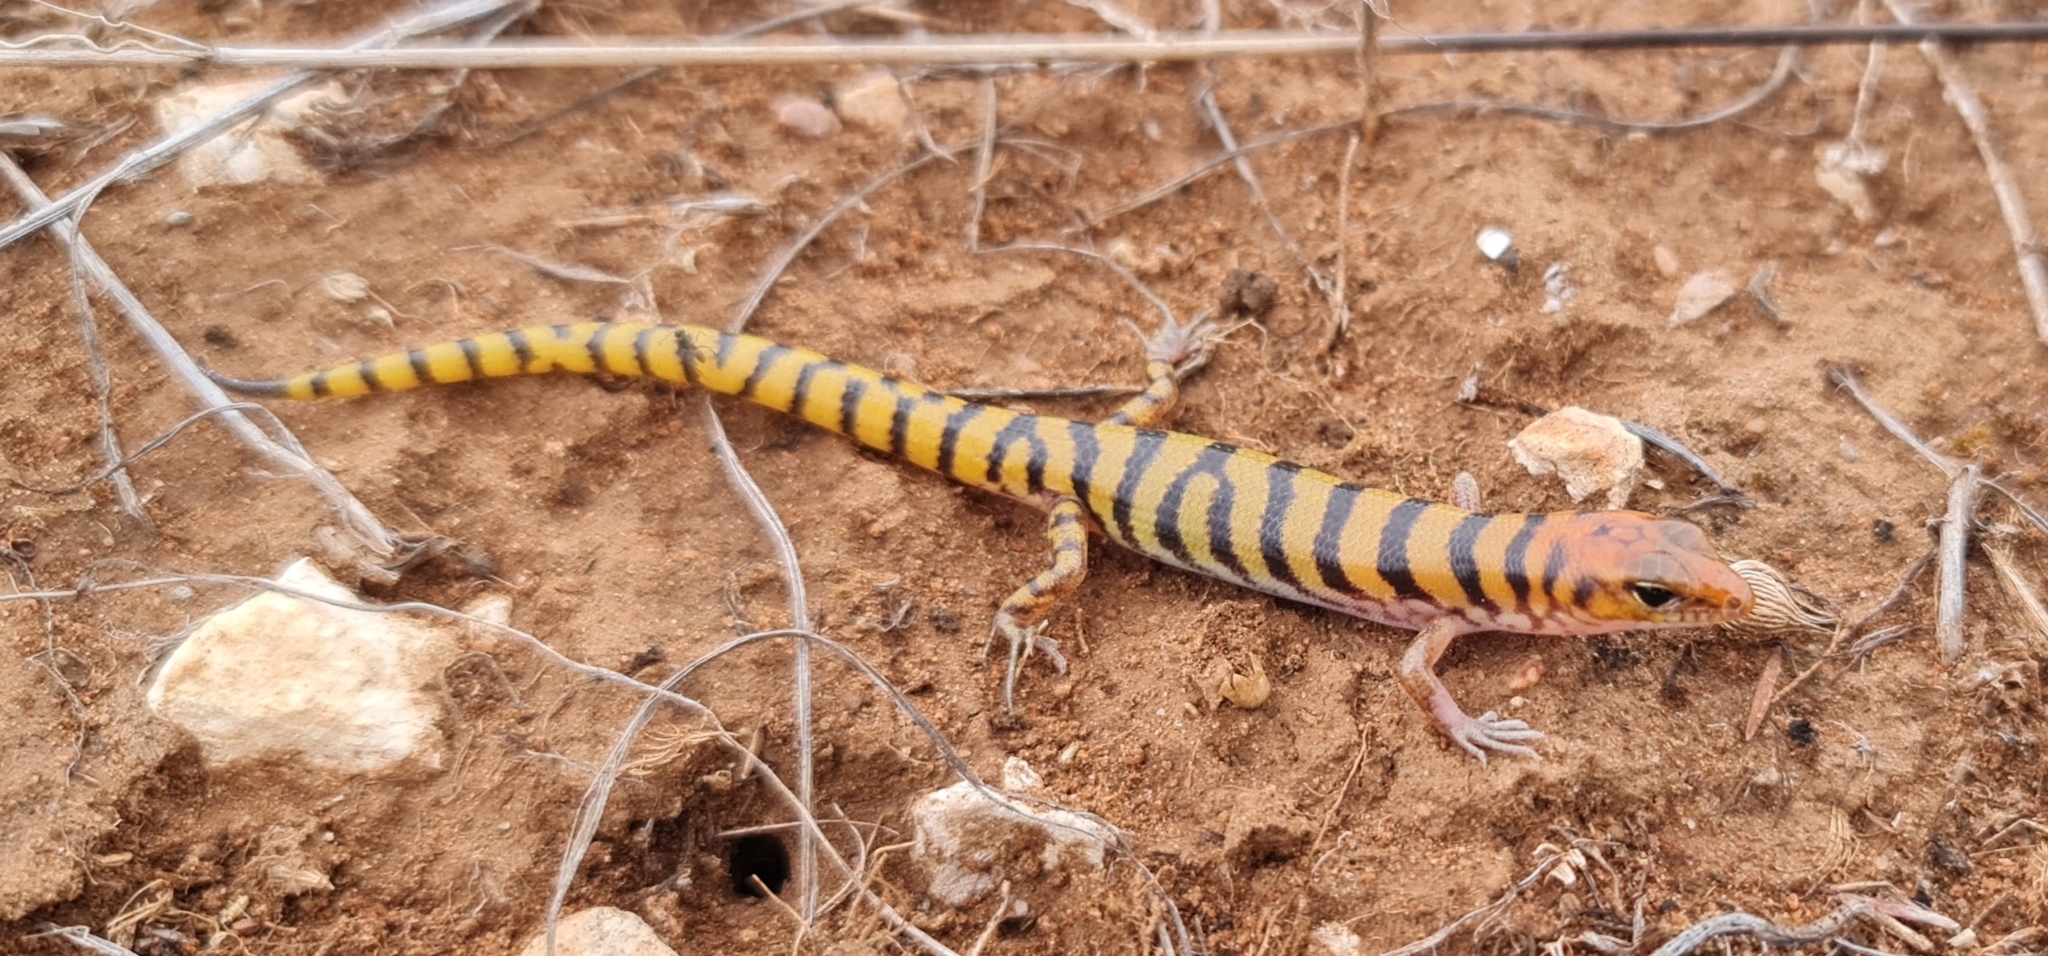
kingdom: Animalia
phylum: Chordata
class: Squamata
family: Scincidae
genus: Eremiascincus
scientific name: Eremiascincus richardsonii
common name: Broad banded sand swimmer
